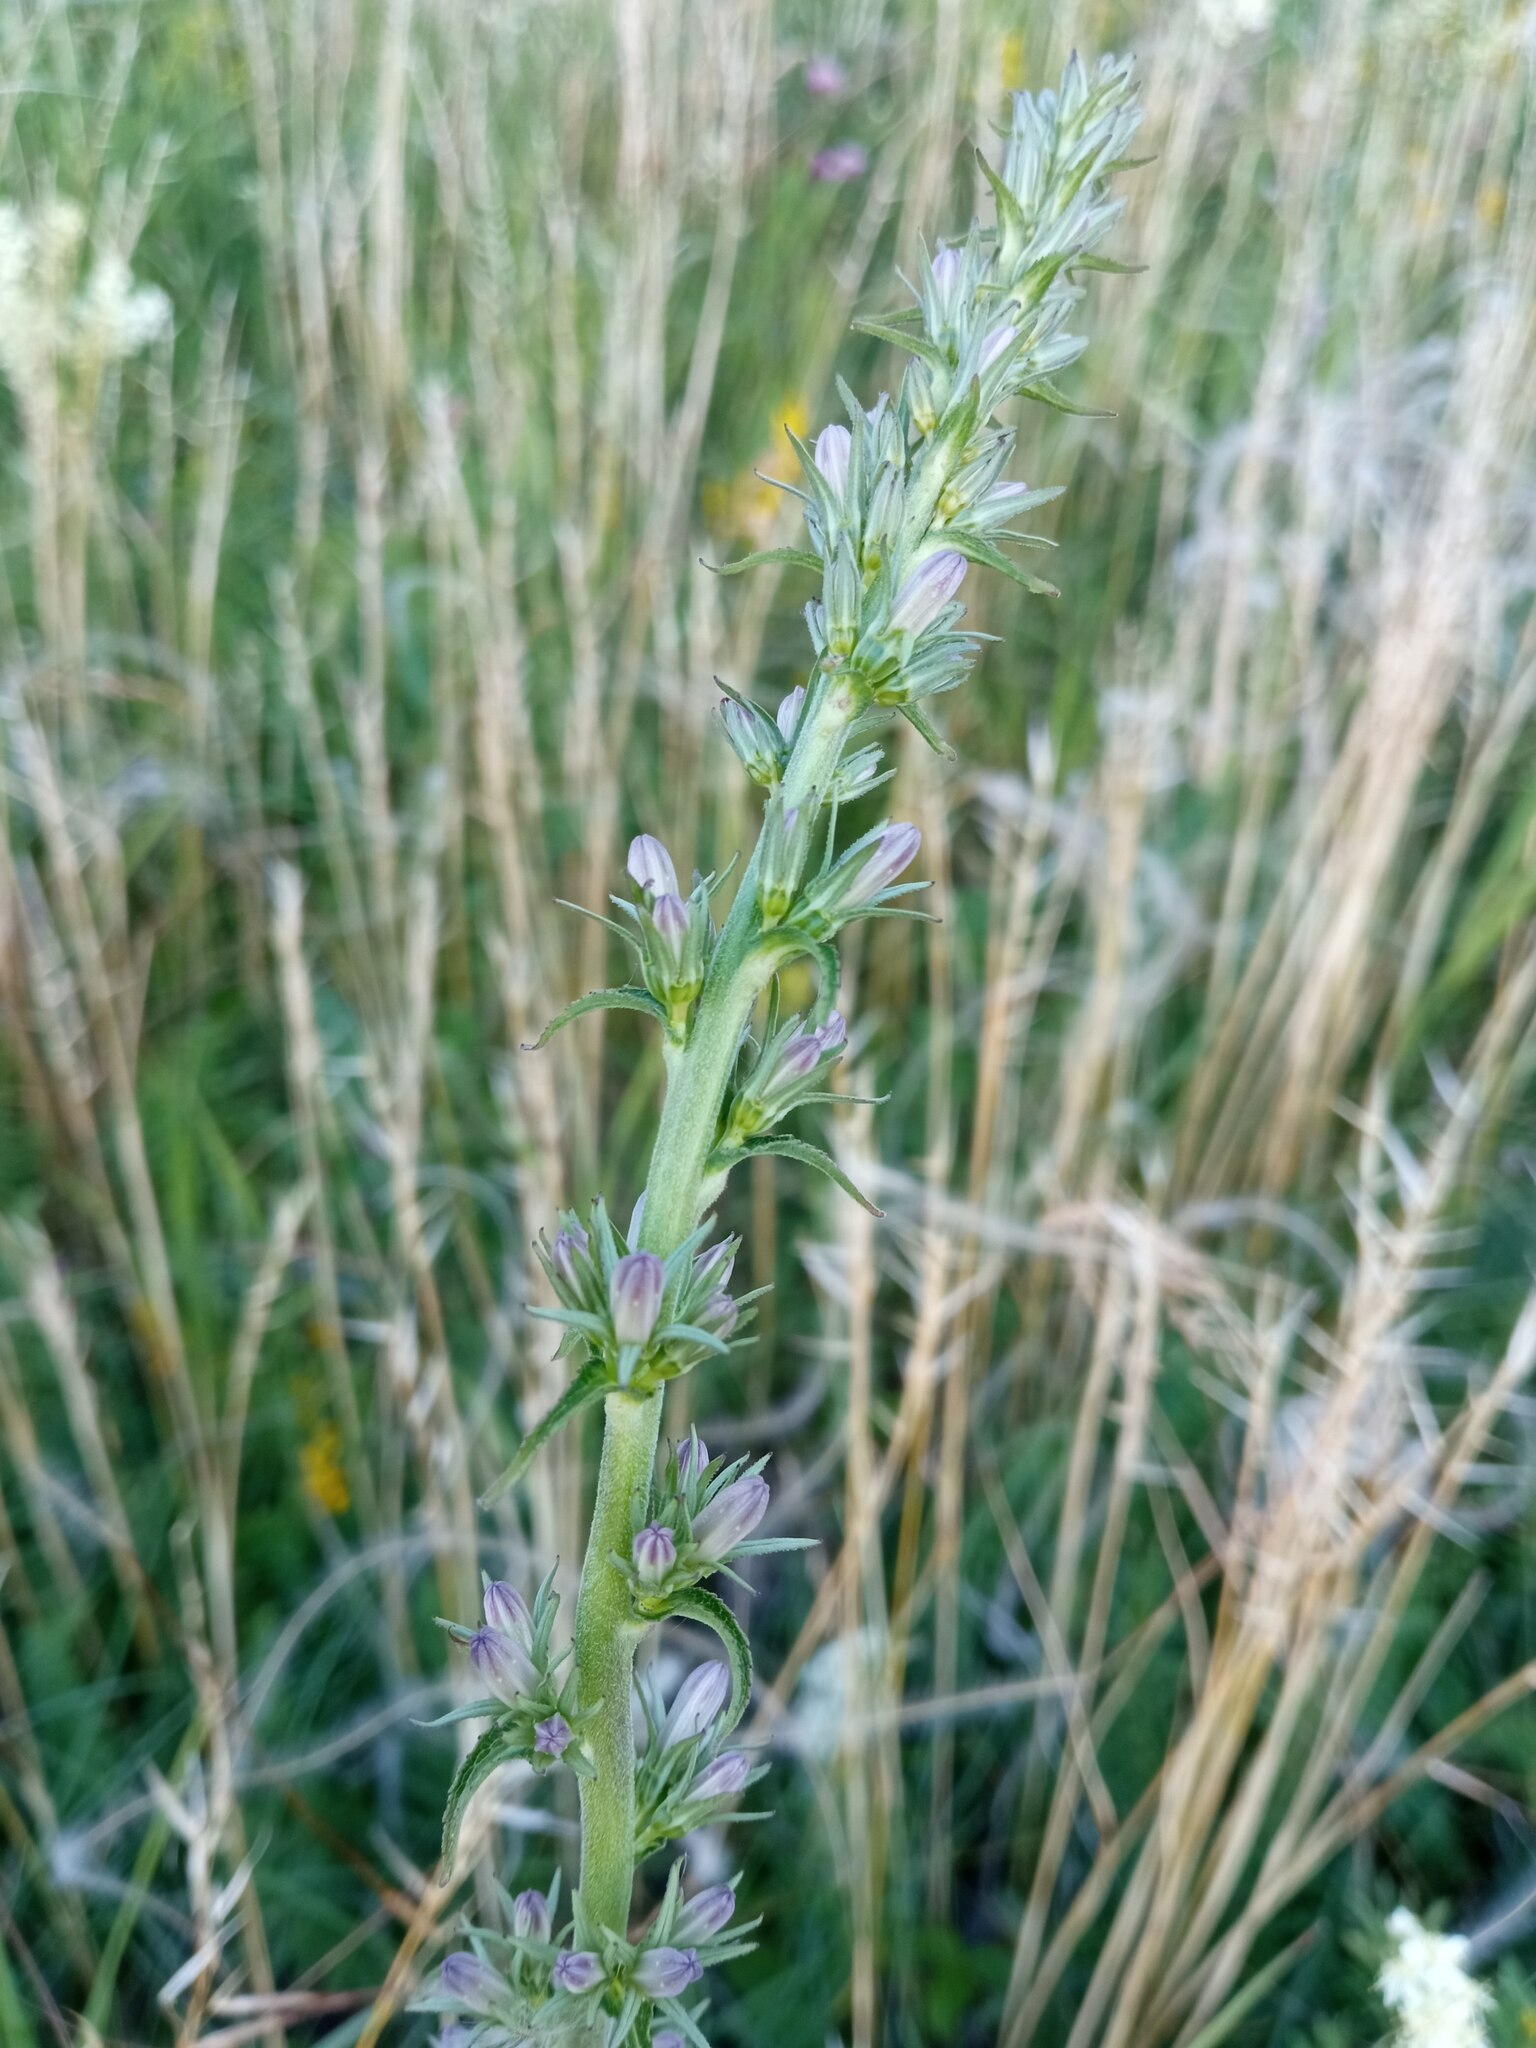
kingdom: Plantae
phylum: Tracheophyta
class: Magnoliopsida
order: Asterales
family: Campanulaceae
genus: Campanula
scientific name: Campanula bononiensis
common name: Pale bellflower
